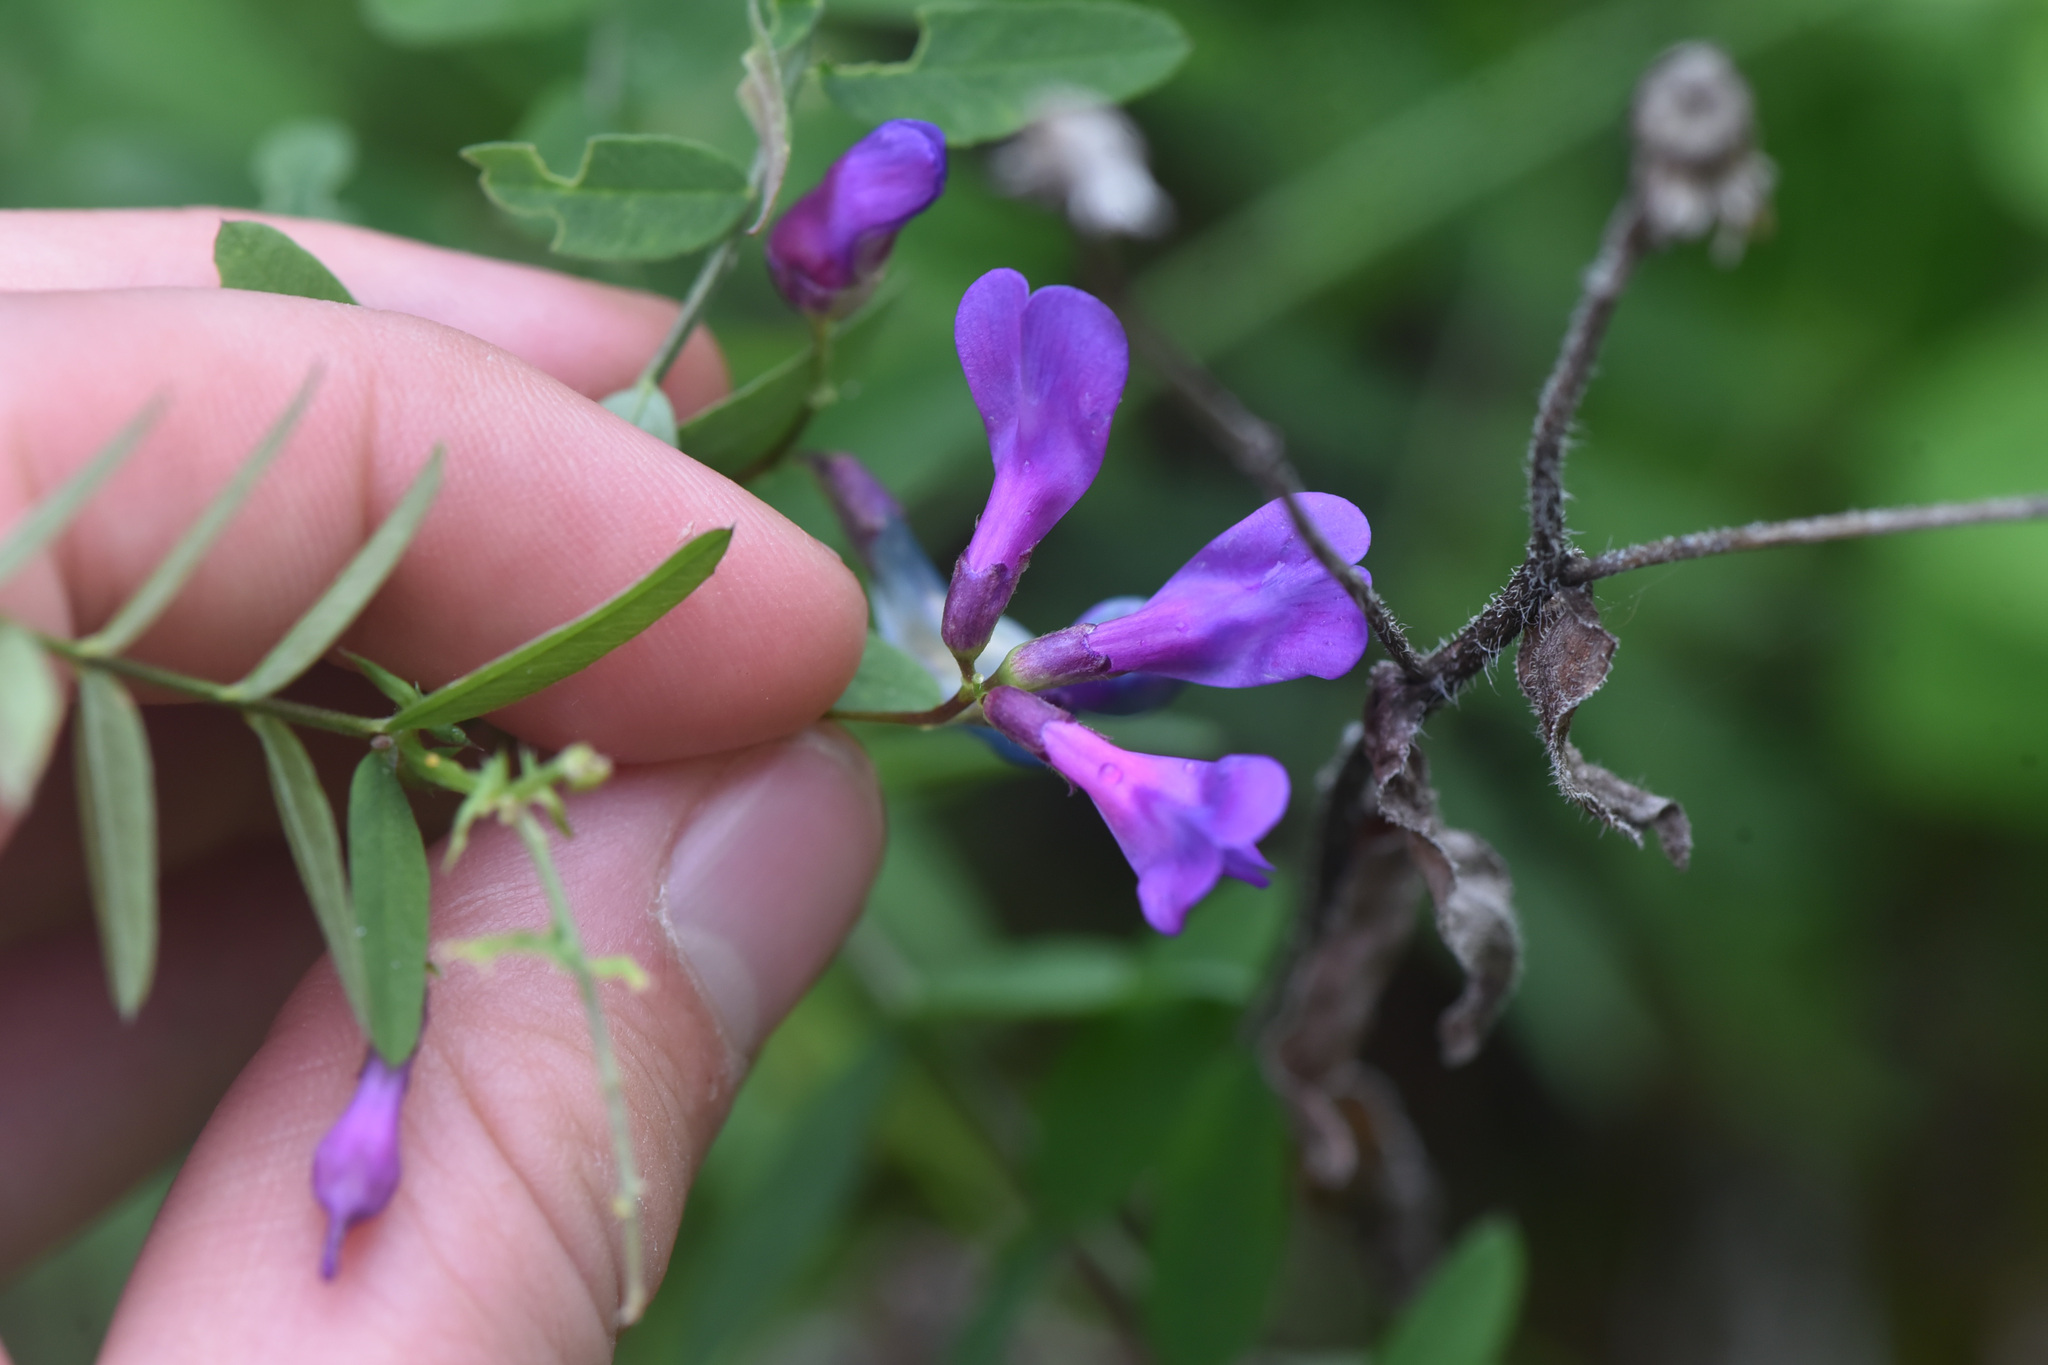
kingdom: Plantae
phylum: Tracheophyta
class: Magnoliopsida
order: Fabales
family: Fabaceae
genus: Vicia
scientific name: Vicia americana
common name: American vetch
